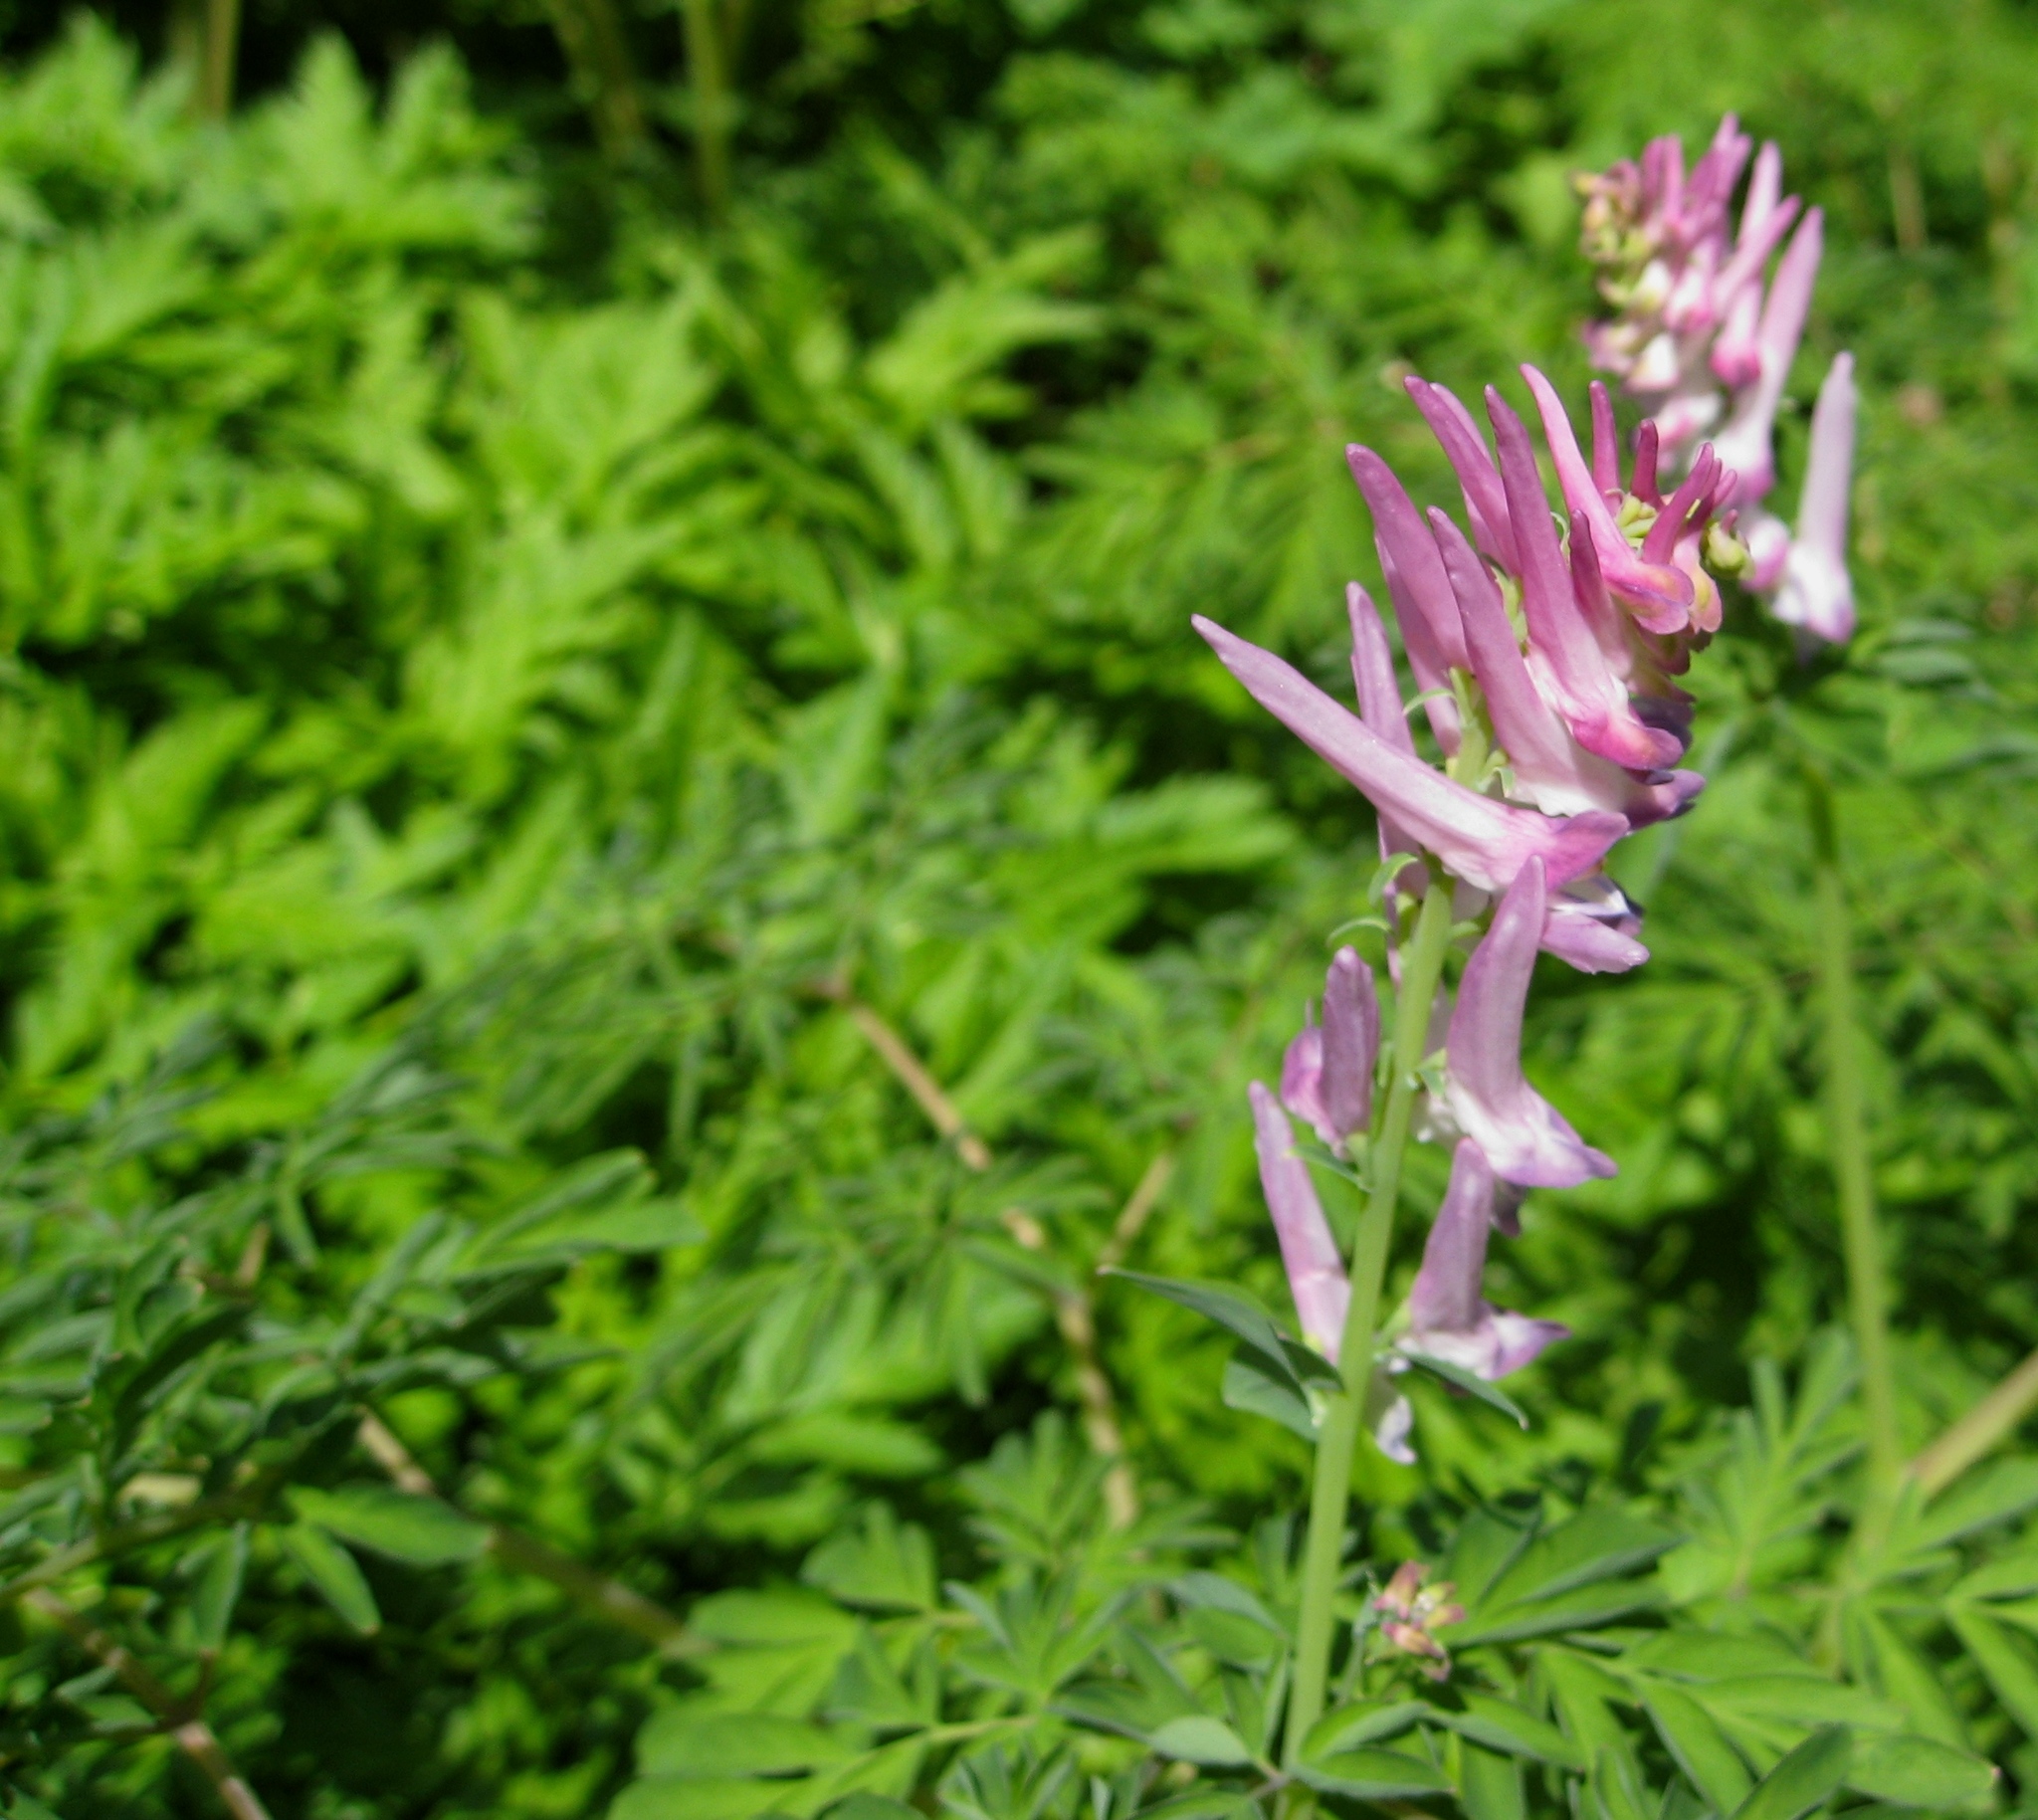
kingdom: Plantae
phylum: Tracheophyta
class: Magnoliopsida
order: Ranunculales
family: Papaveraceae
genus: Corydalis
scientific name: Corydalis scouleri
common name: Scouler's corydalis
